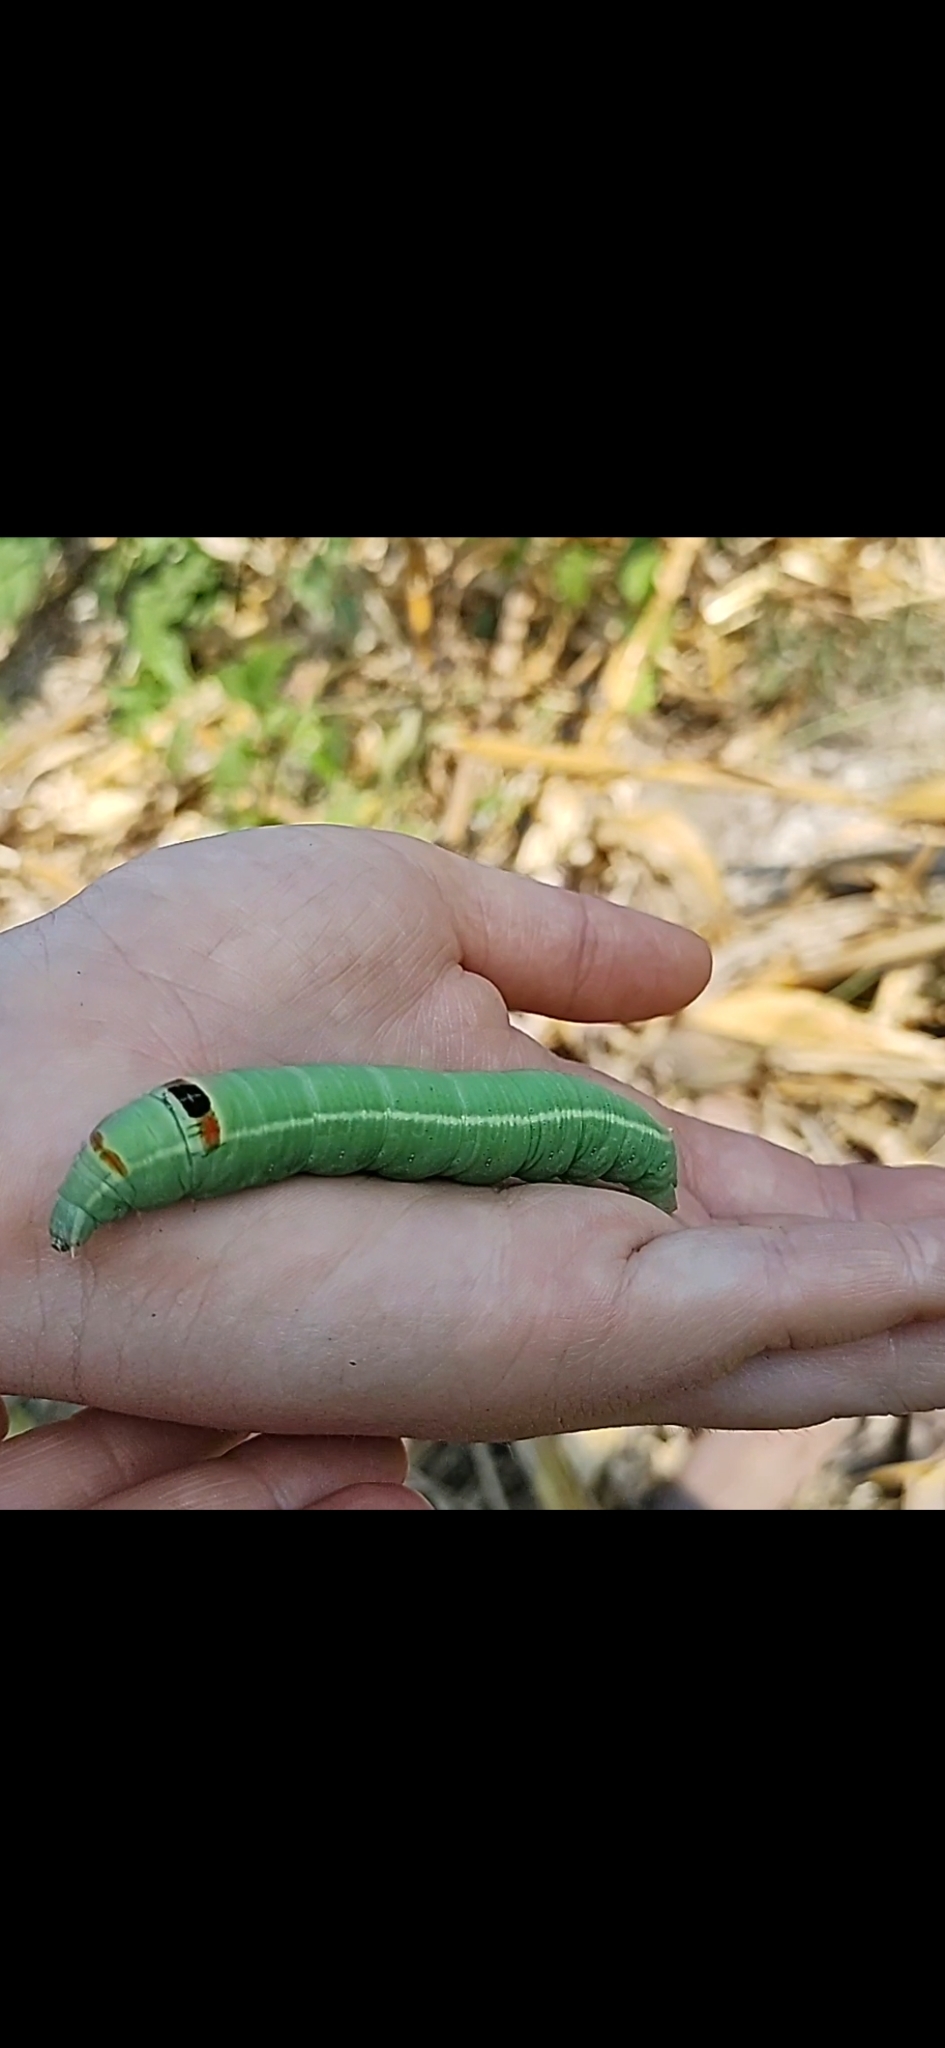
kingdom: Animalia
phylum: Arthropoda
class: Insecta
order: Lepidoptera
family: Sphingidae
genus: Erinnyis
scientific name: Erinnyis ello
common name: Ello sphinx
